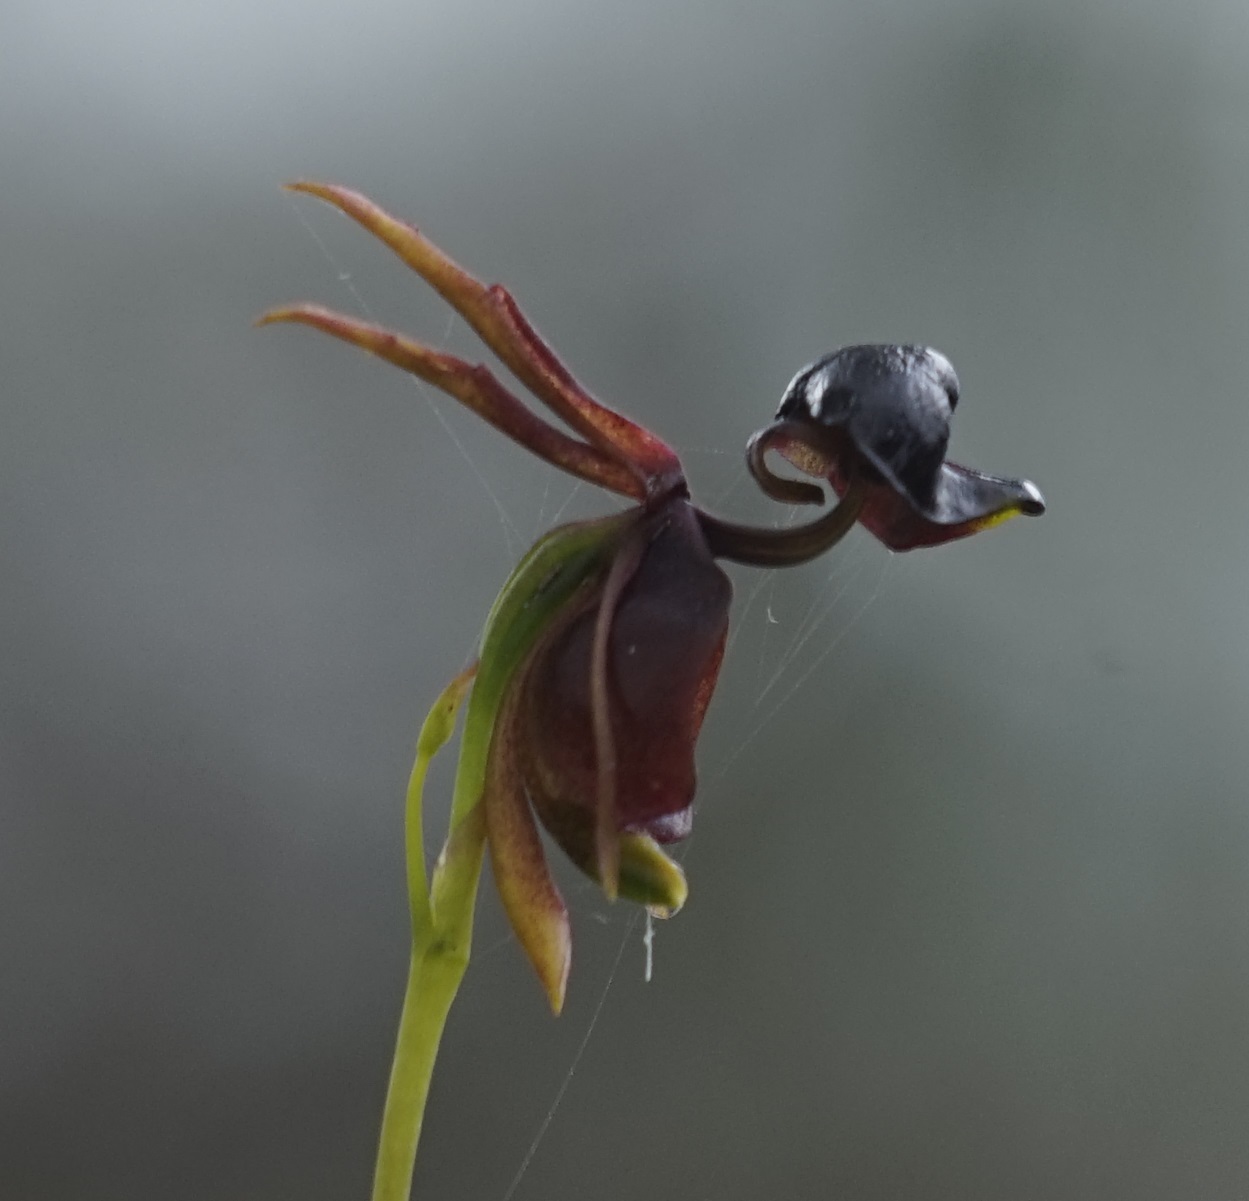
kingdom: Plantae
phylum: Tracheophyta
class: Liliopsida
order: Asparagales
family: Orchidaceae
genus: Caleana
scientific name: Caleana major
